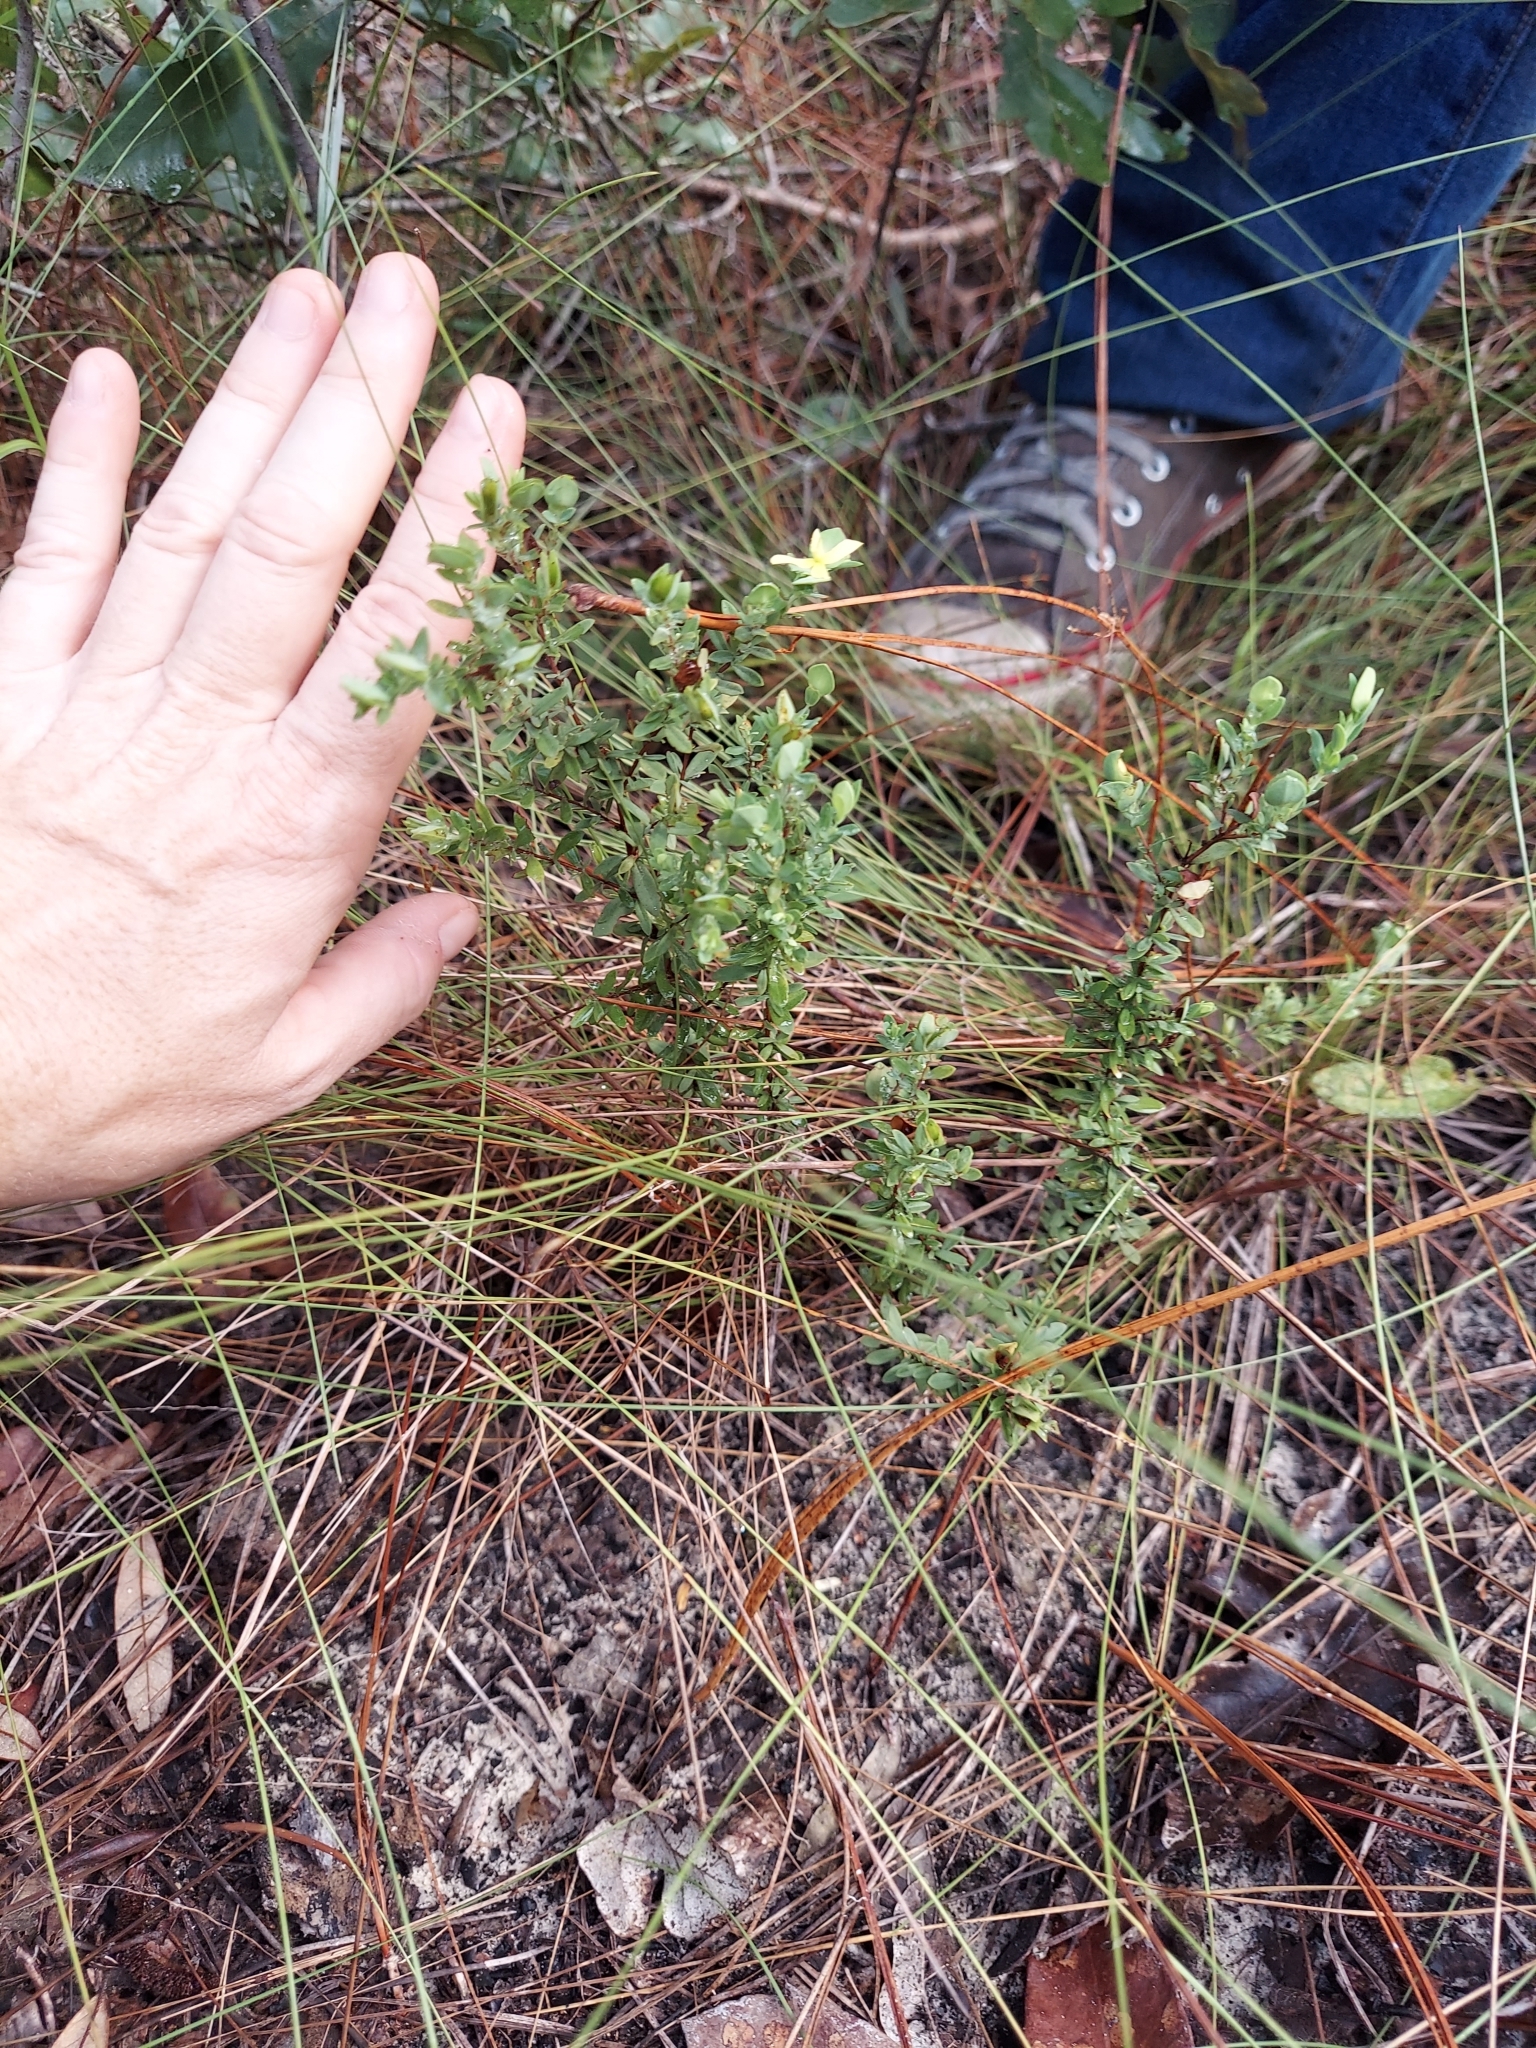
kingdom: Plantae
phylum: Tracheophyta
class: Magnoliopsida
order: Malpighiales
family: Hypericaceae
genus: Hypericum
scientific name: Hypericum hypericoides
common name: St. andrew's cross
